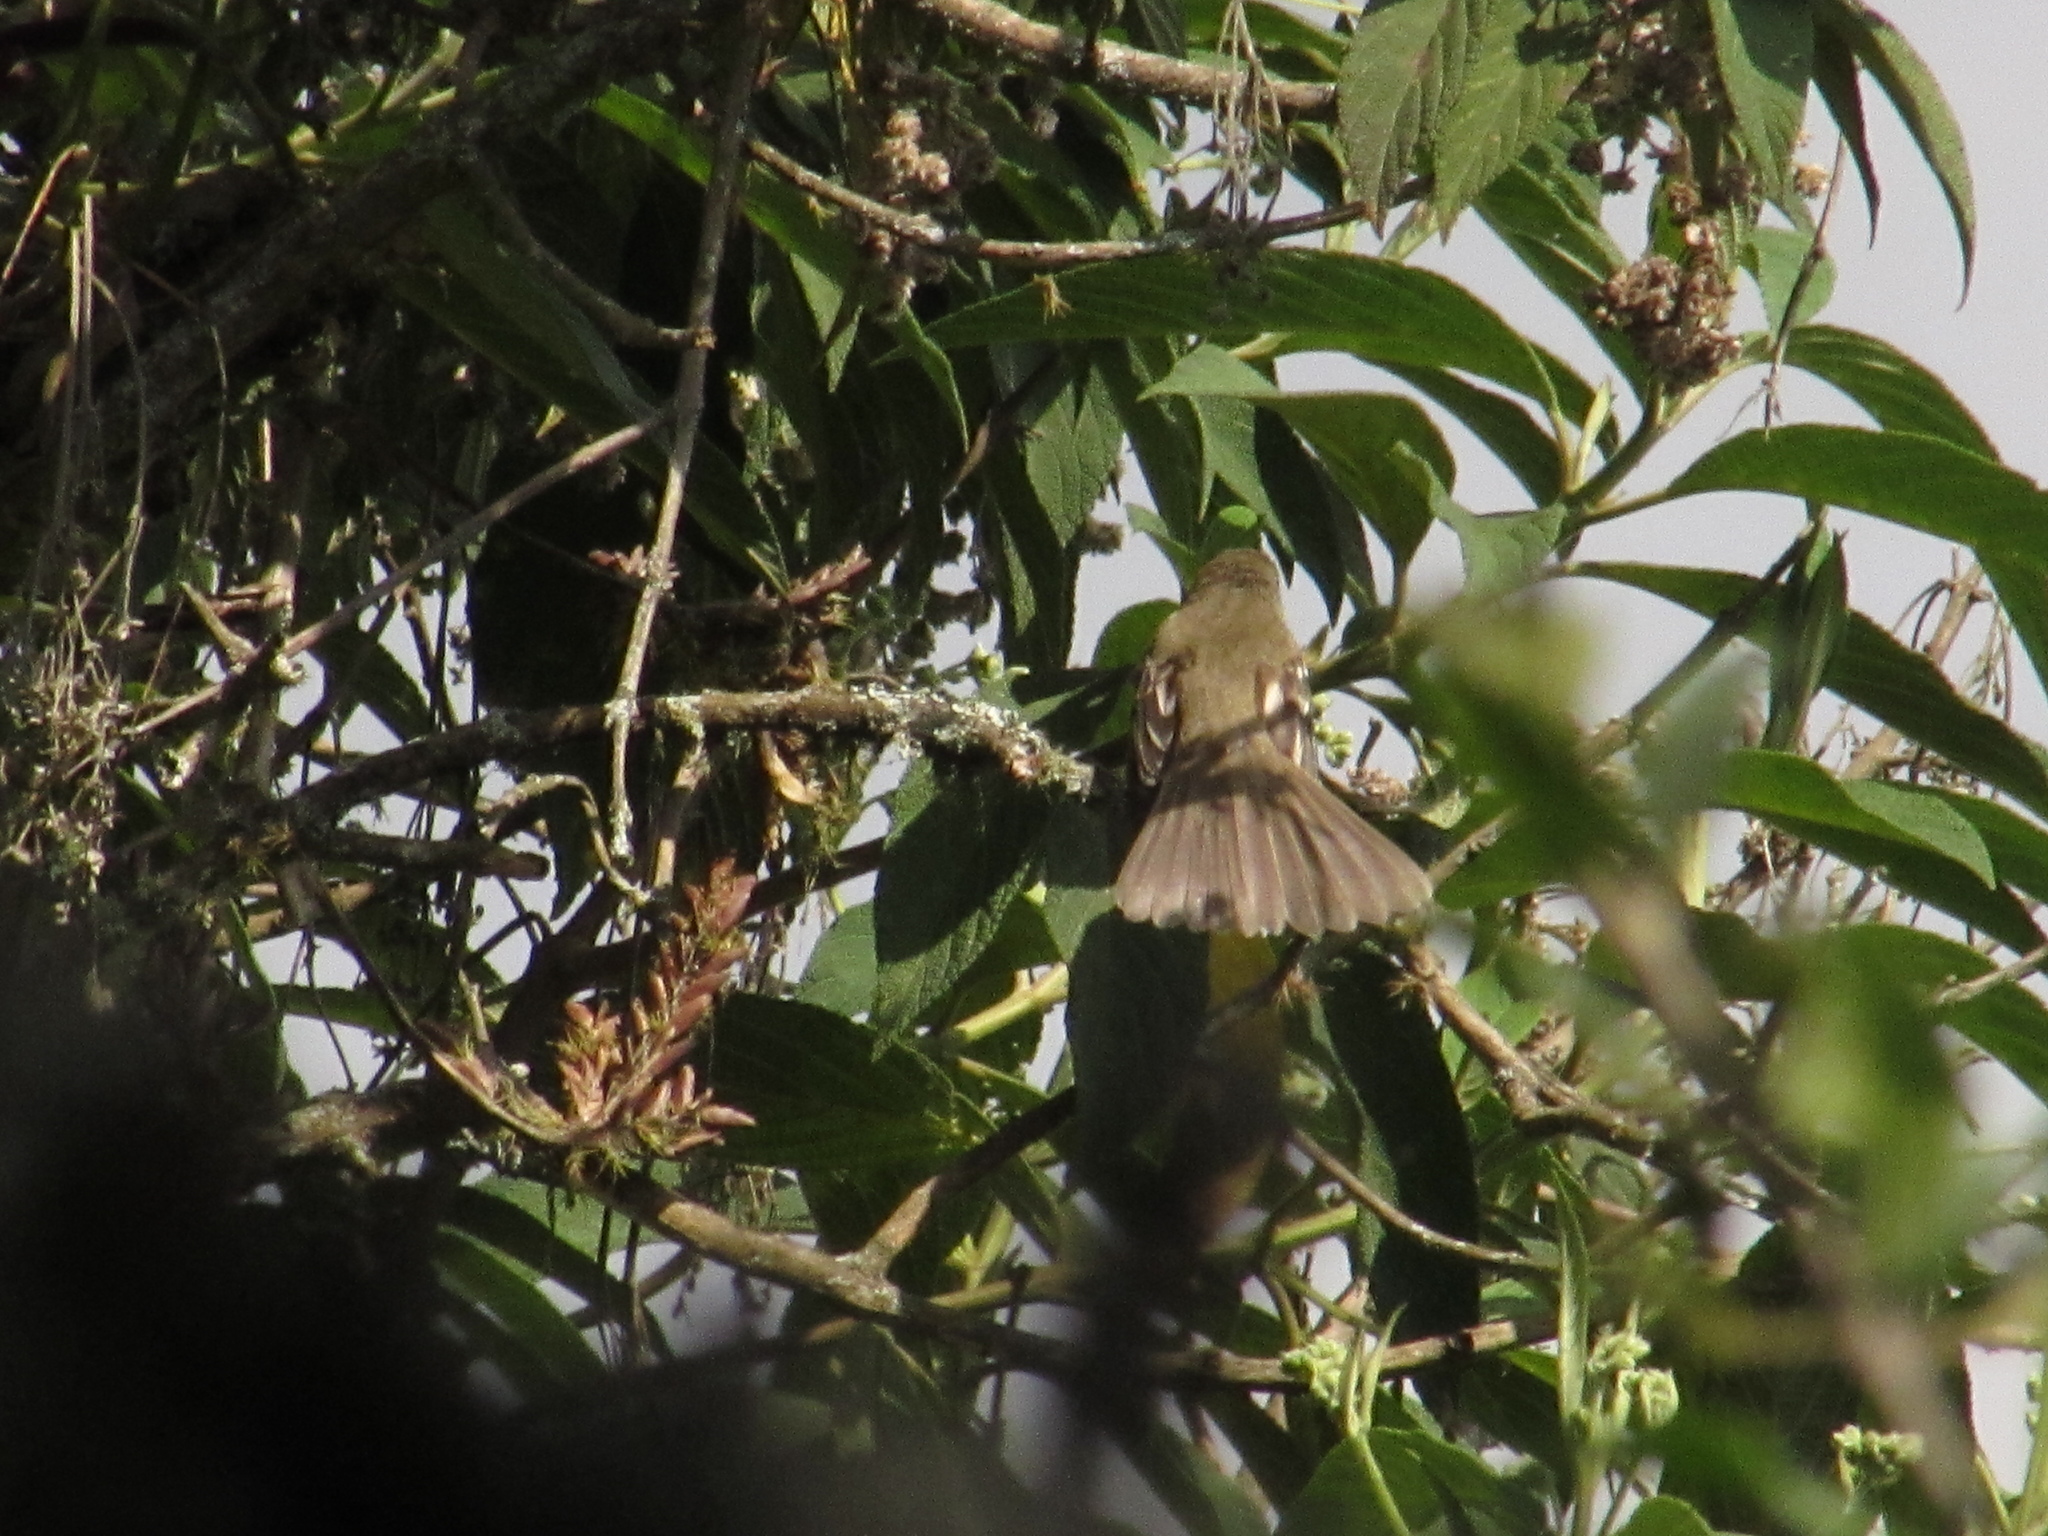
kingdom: Animalia
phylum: Chordata
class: Aves
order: Passeriformes
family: Tyrannidae
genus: Elaenia
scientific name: Elaenia frantzii
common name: Mountain elaenia
